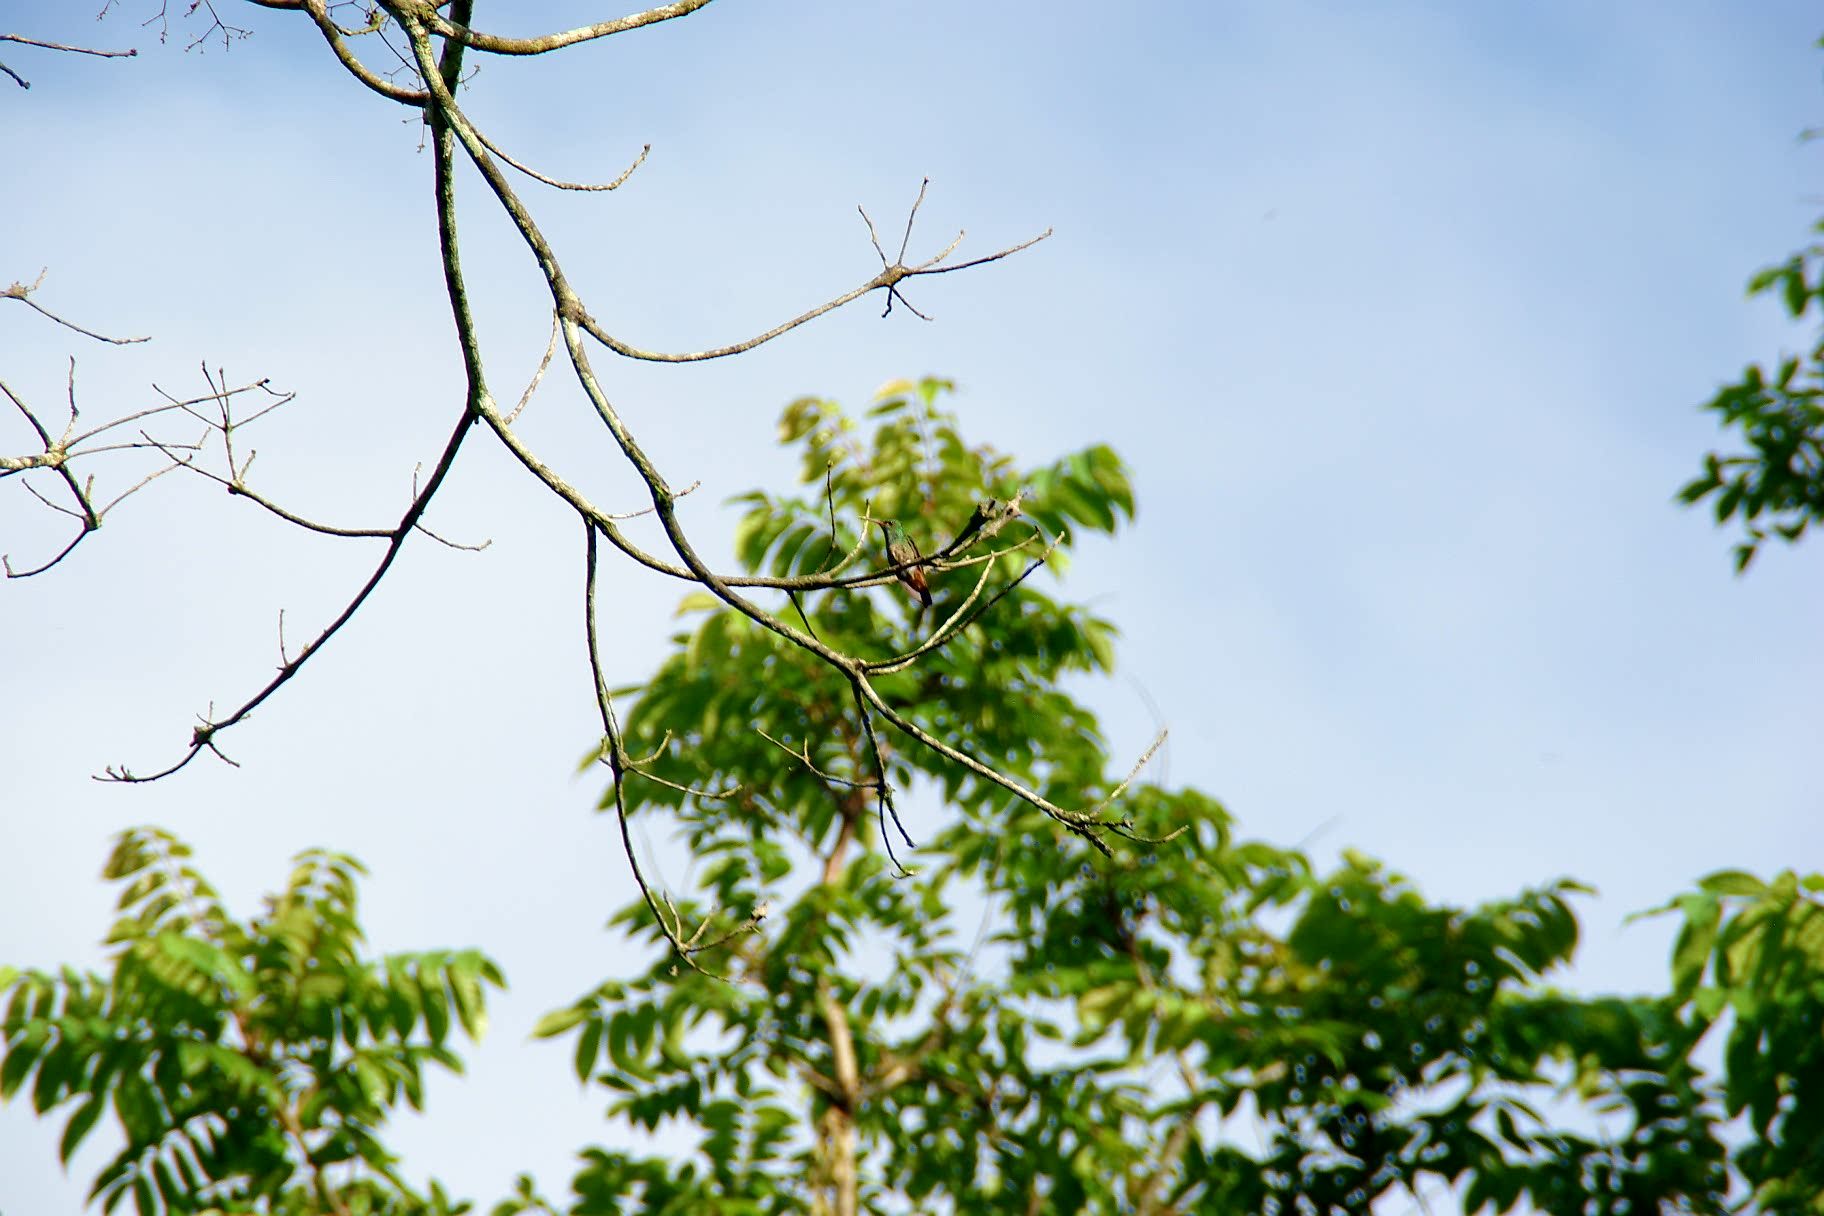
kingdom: Animalia
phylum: Chordata
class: Aves
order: Apodiformes
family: Trochilidae
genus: Amazilia
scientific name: Amazilia tzacatl
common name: Rufous-tailed hummingbird
